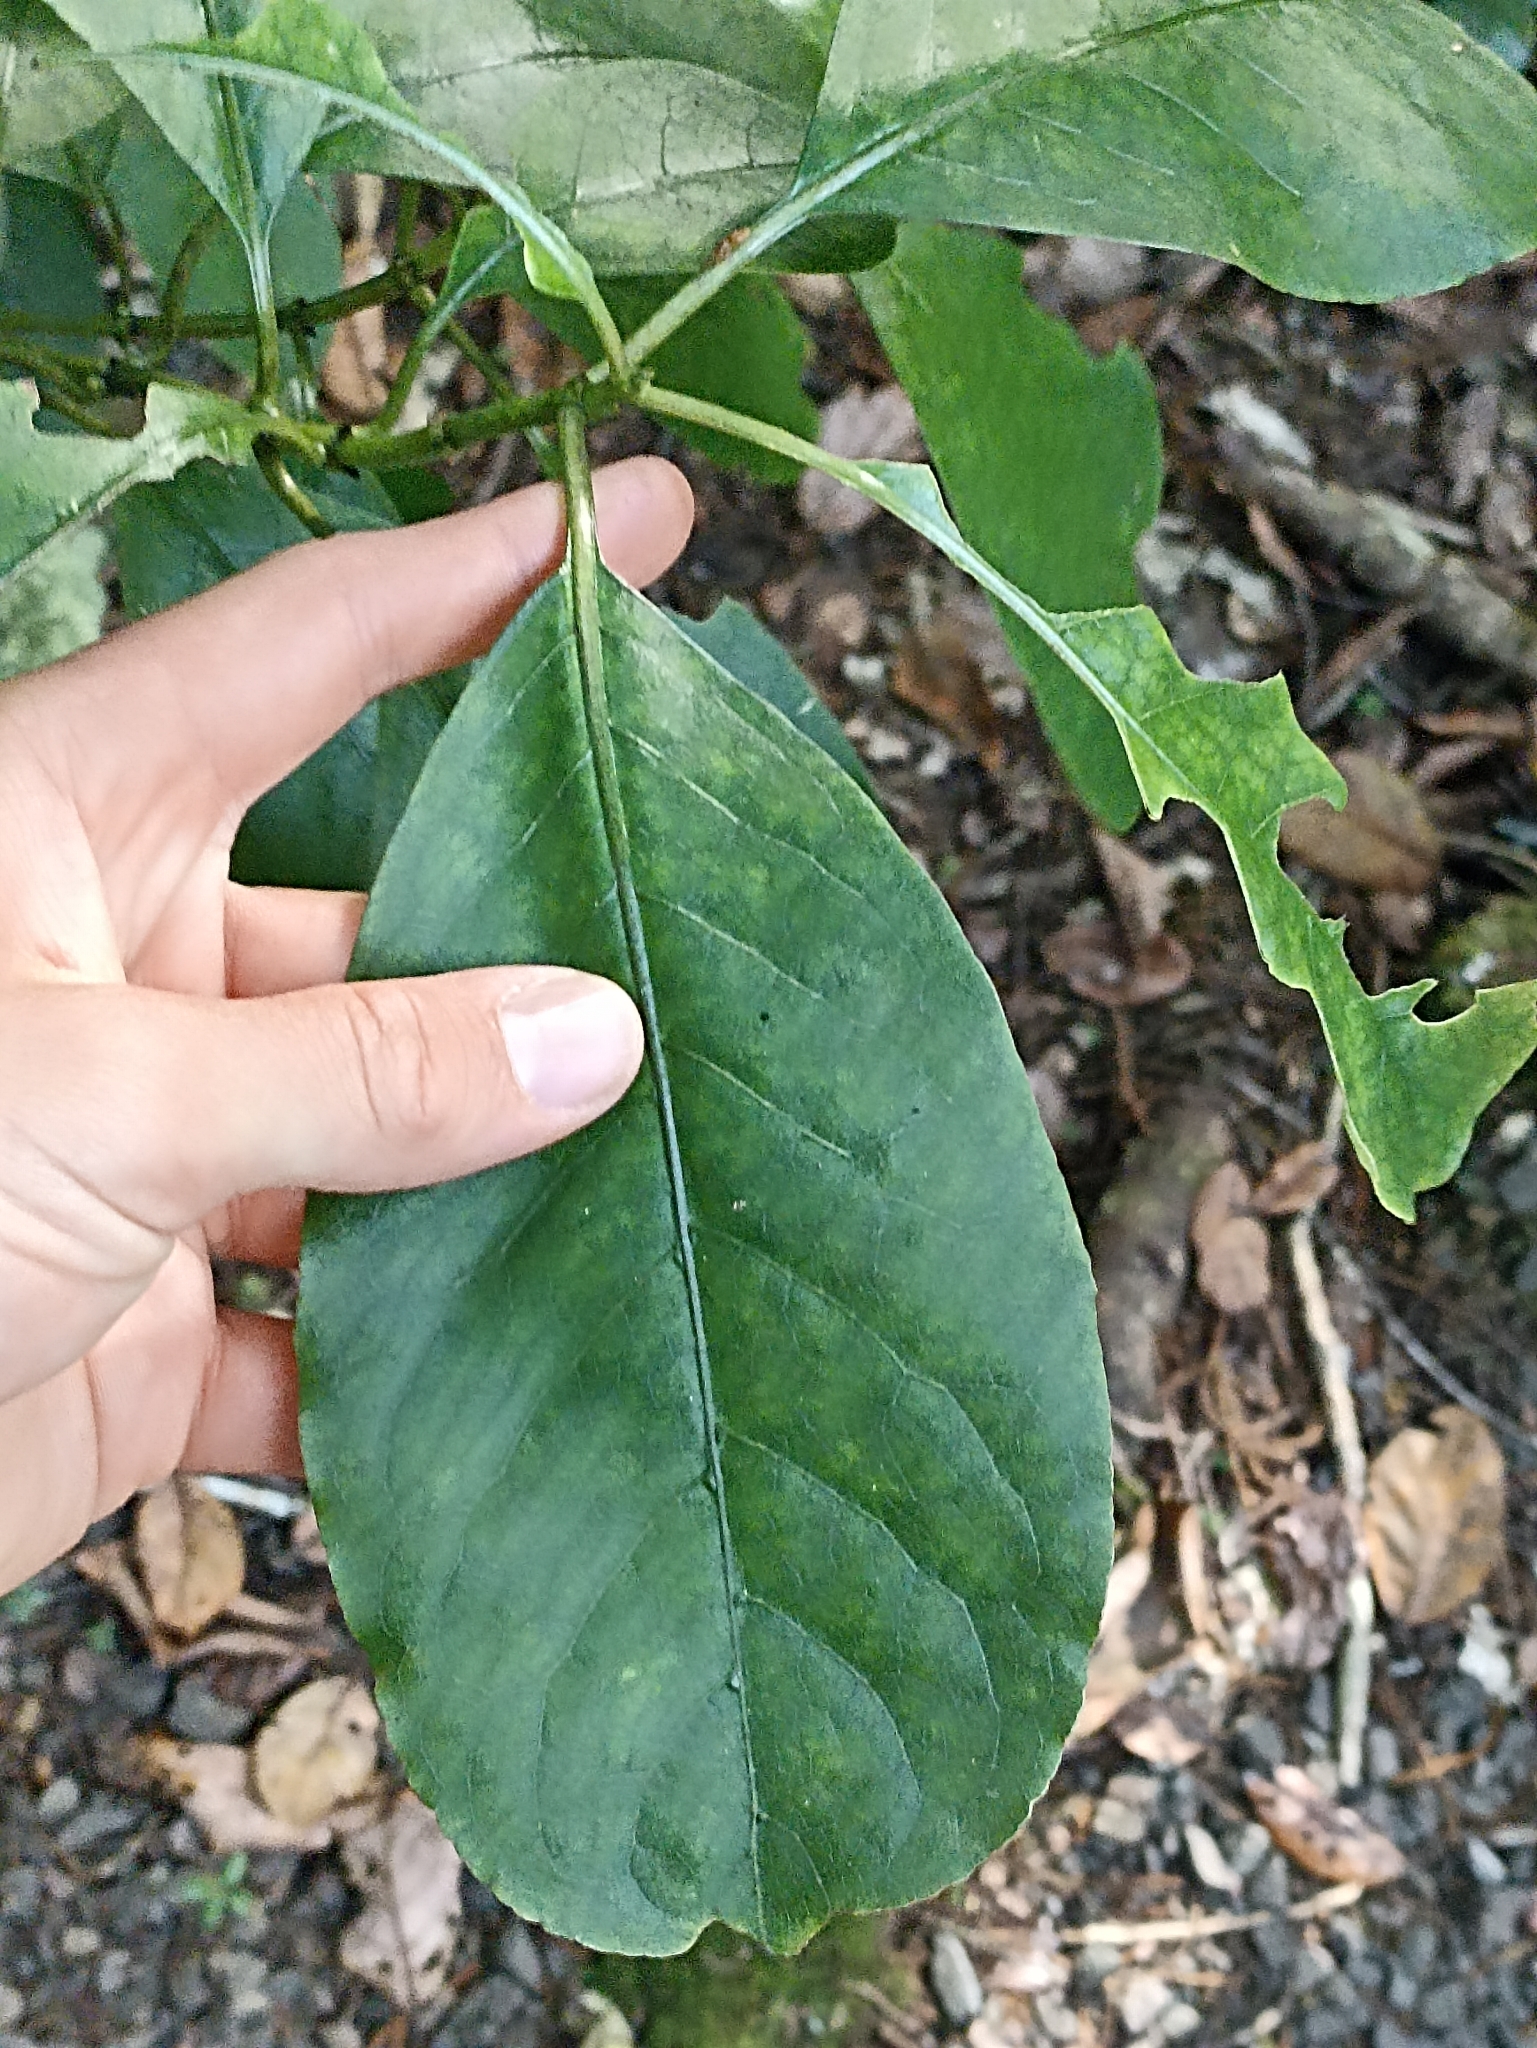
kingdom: Plantae
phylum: Tracheophyta
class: Magnoliopsida
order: Gentianales
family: Rubiaceae
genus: Coprosma
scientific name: Coprosma autumnalis
